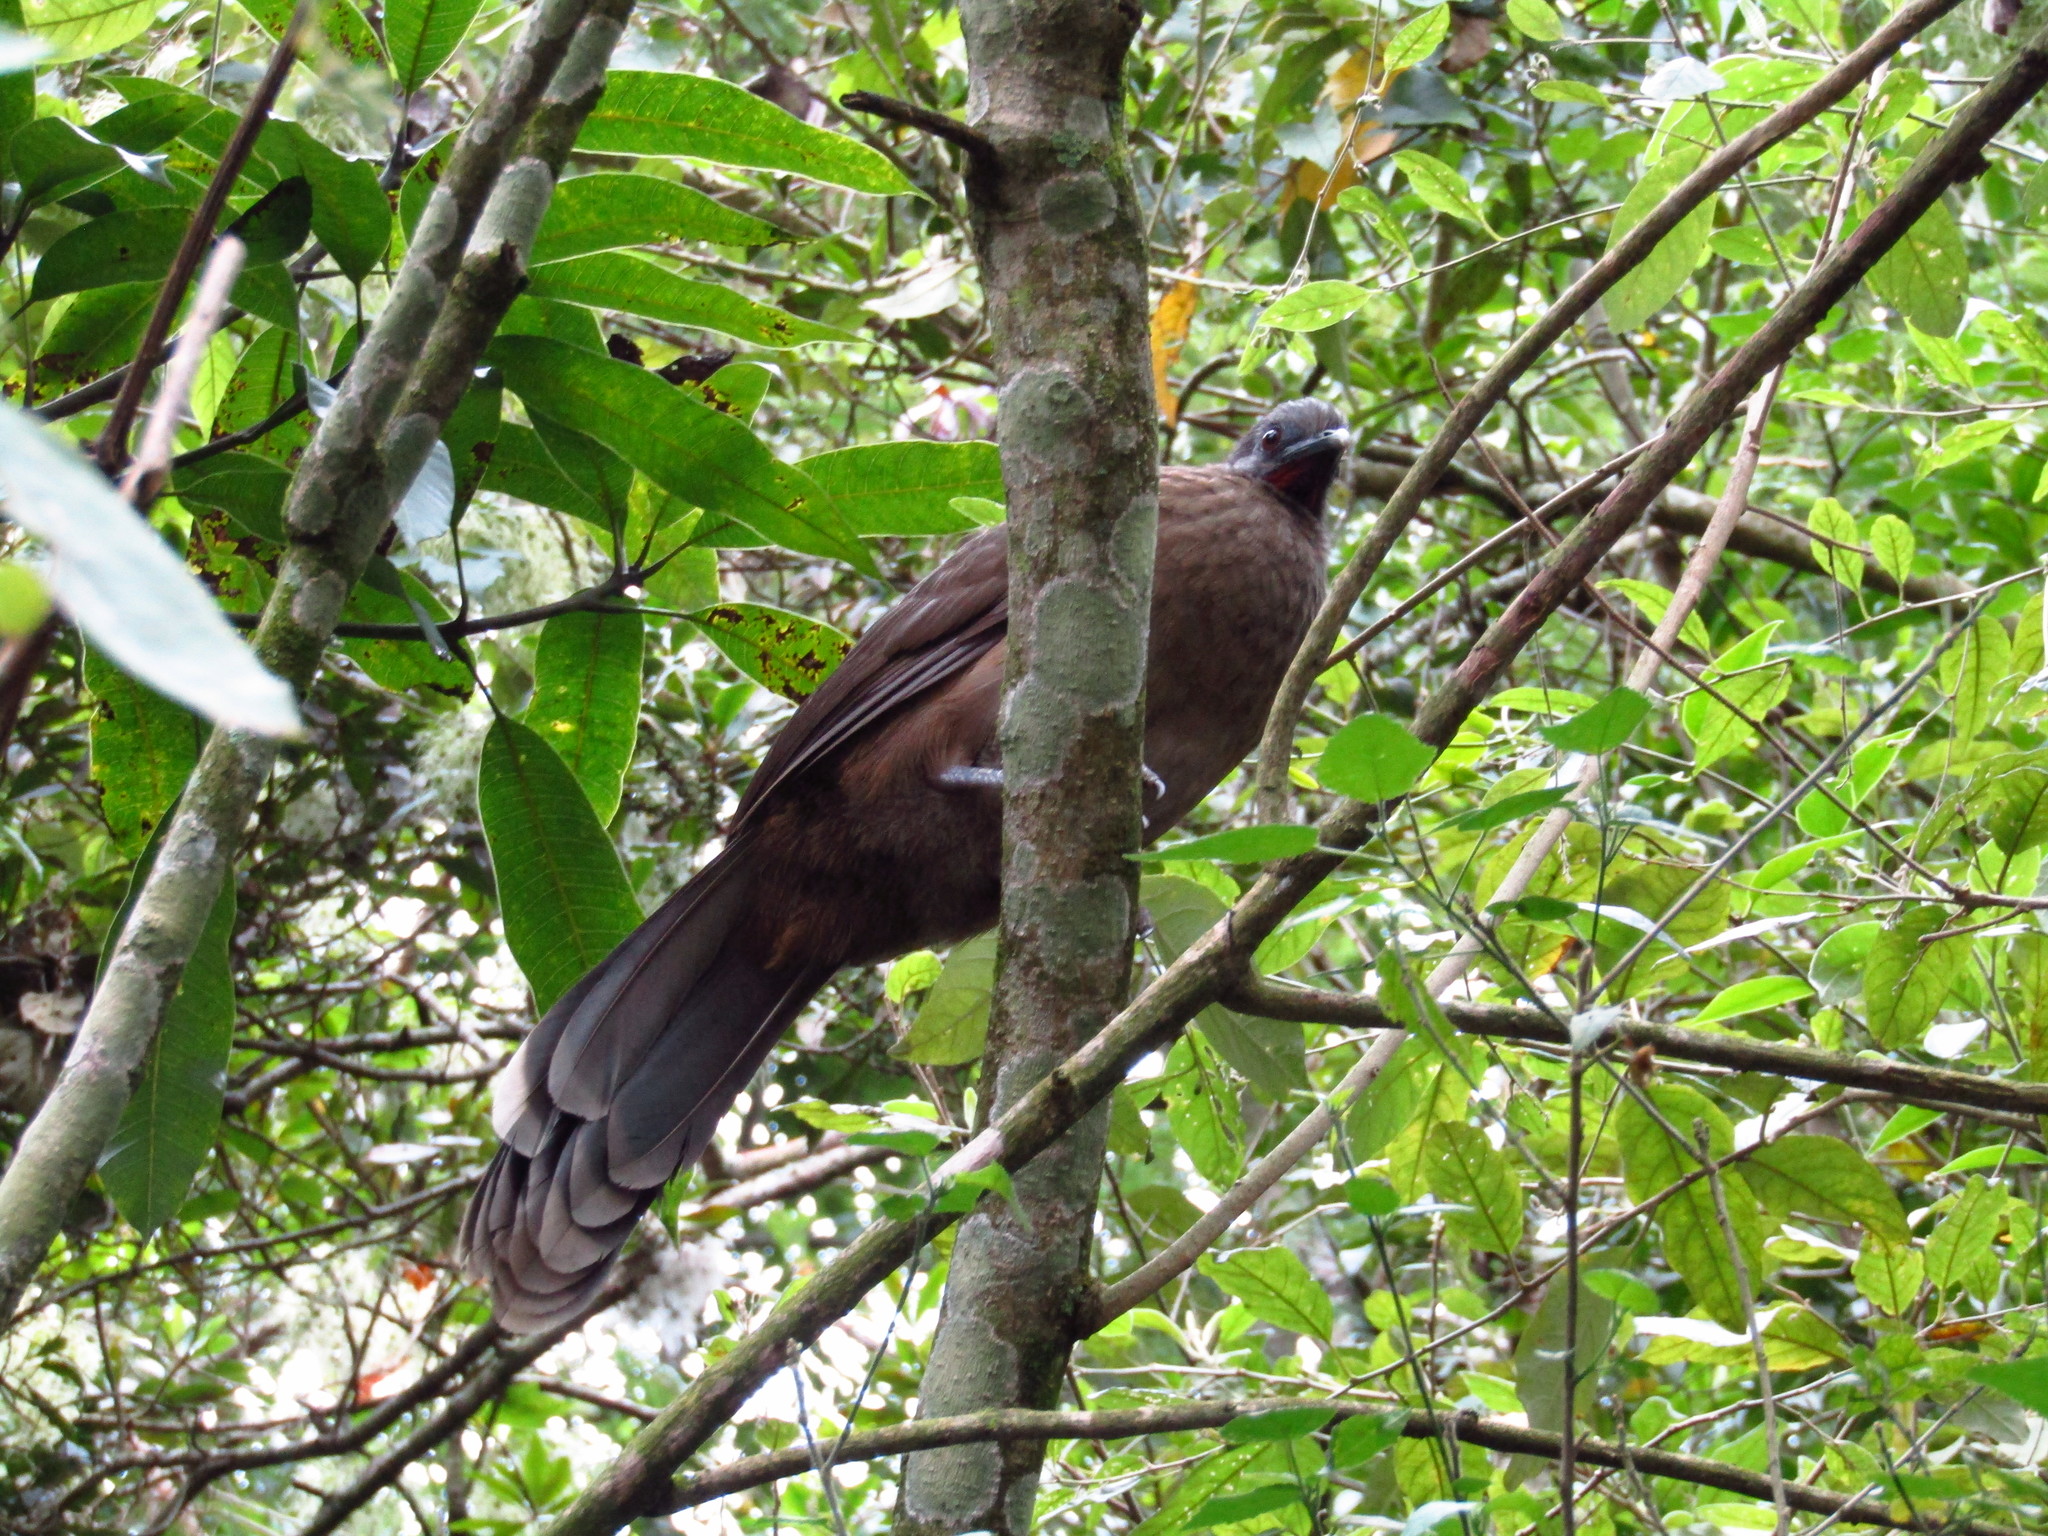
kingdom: Animalia
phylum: Chordata
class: Aves
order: Galliformes
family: Cracidae
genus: Ortalis
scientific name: Ortalis vetula
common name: Plain chachalaca
